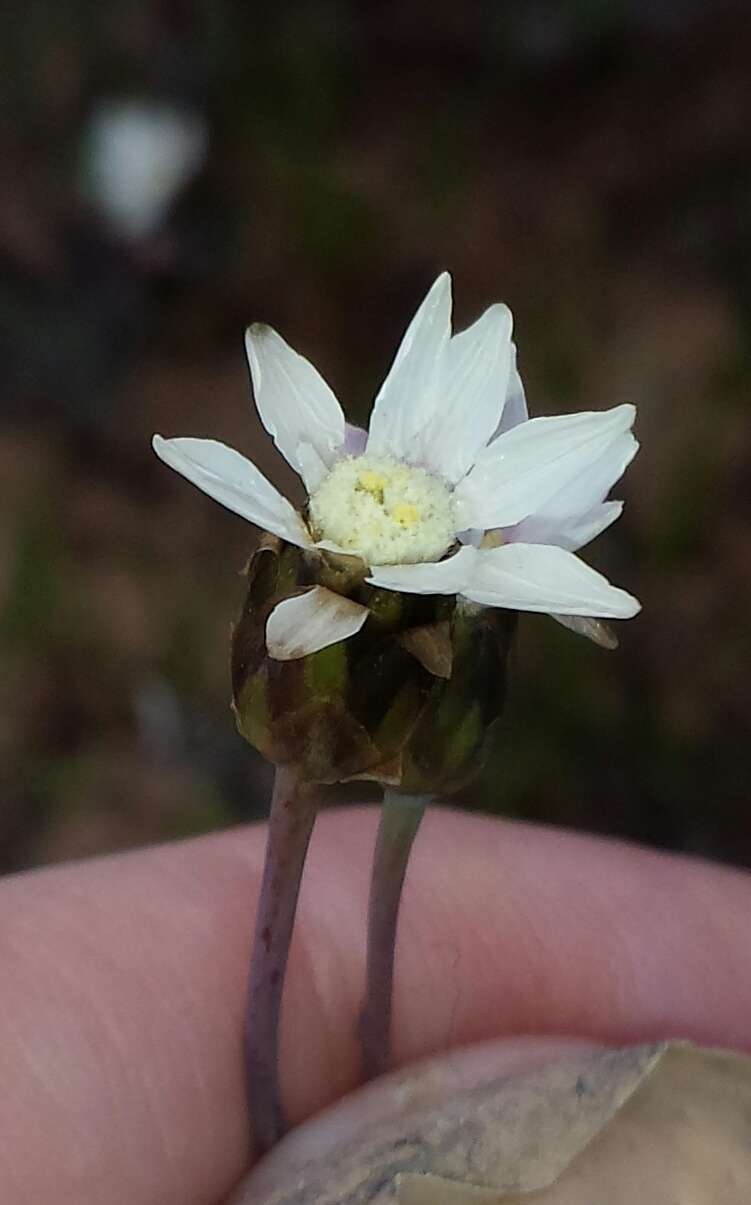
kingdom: Plantae
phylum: Tracheophyta
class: Magnoliopsida
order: Asterales
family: Asteraceae
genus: Rhodanthe
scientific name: Rhodanthe stricta
